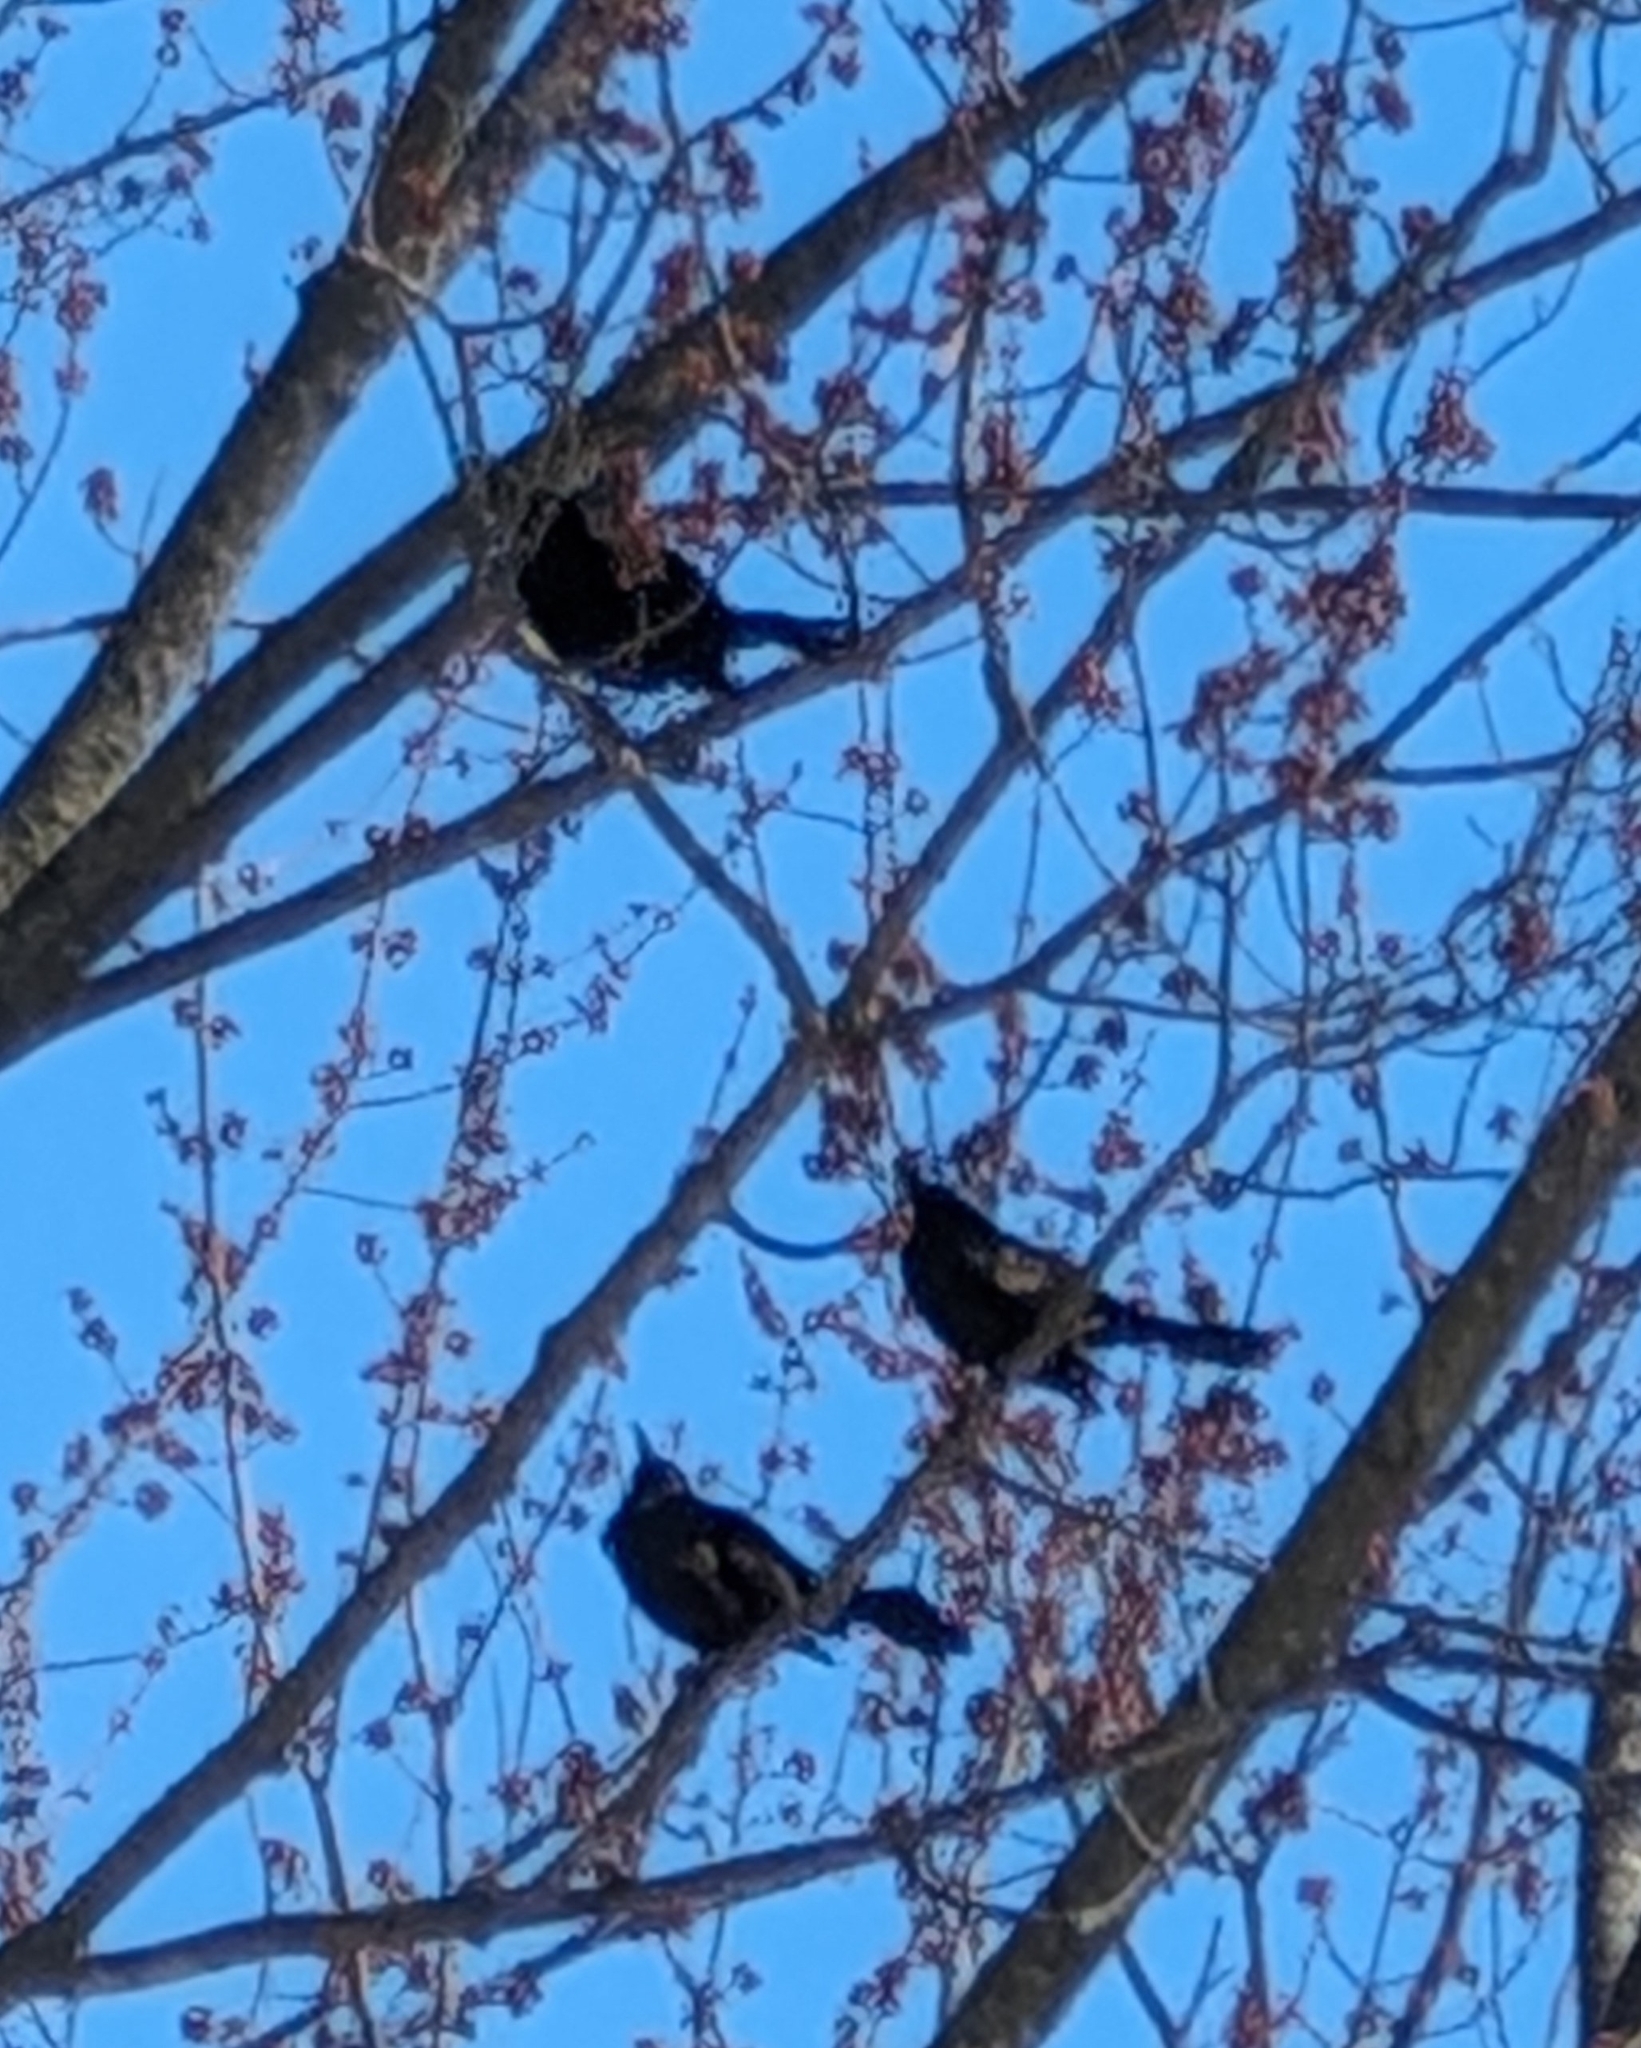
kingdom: Animalia
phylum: Chordata
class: Aves
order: Passeriformes
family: Icteridae
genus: Quiscalus
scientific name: Quiscalus quiscula
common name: Common grackle
